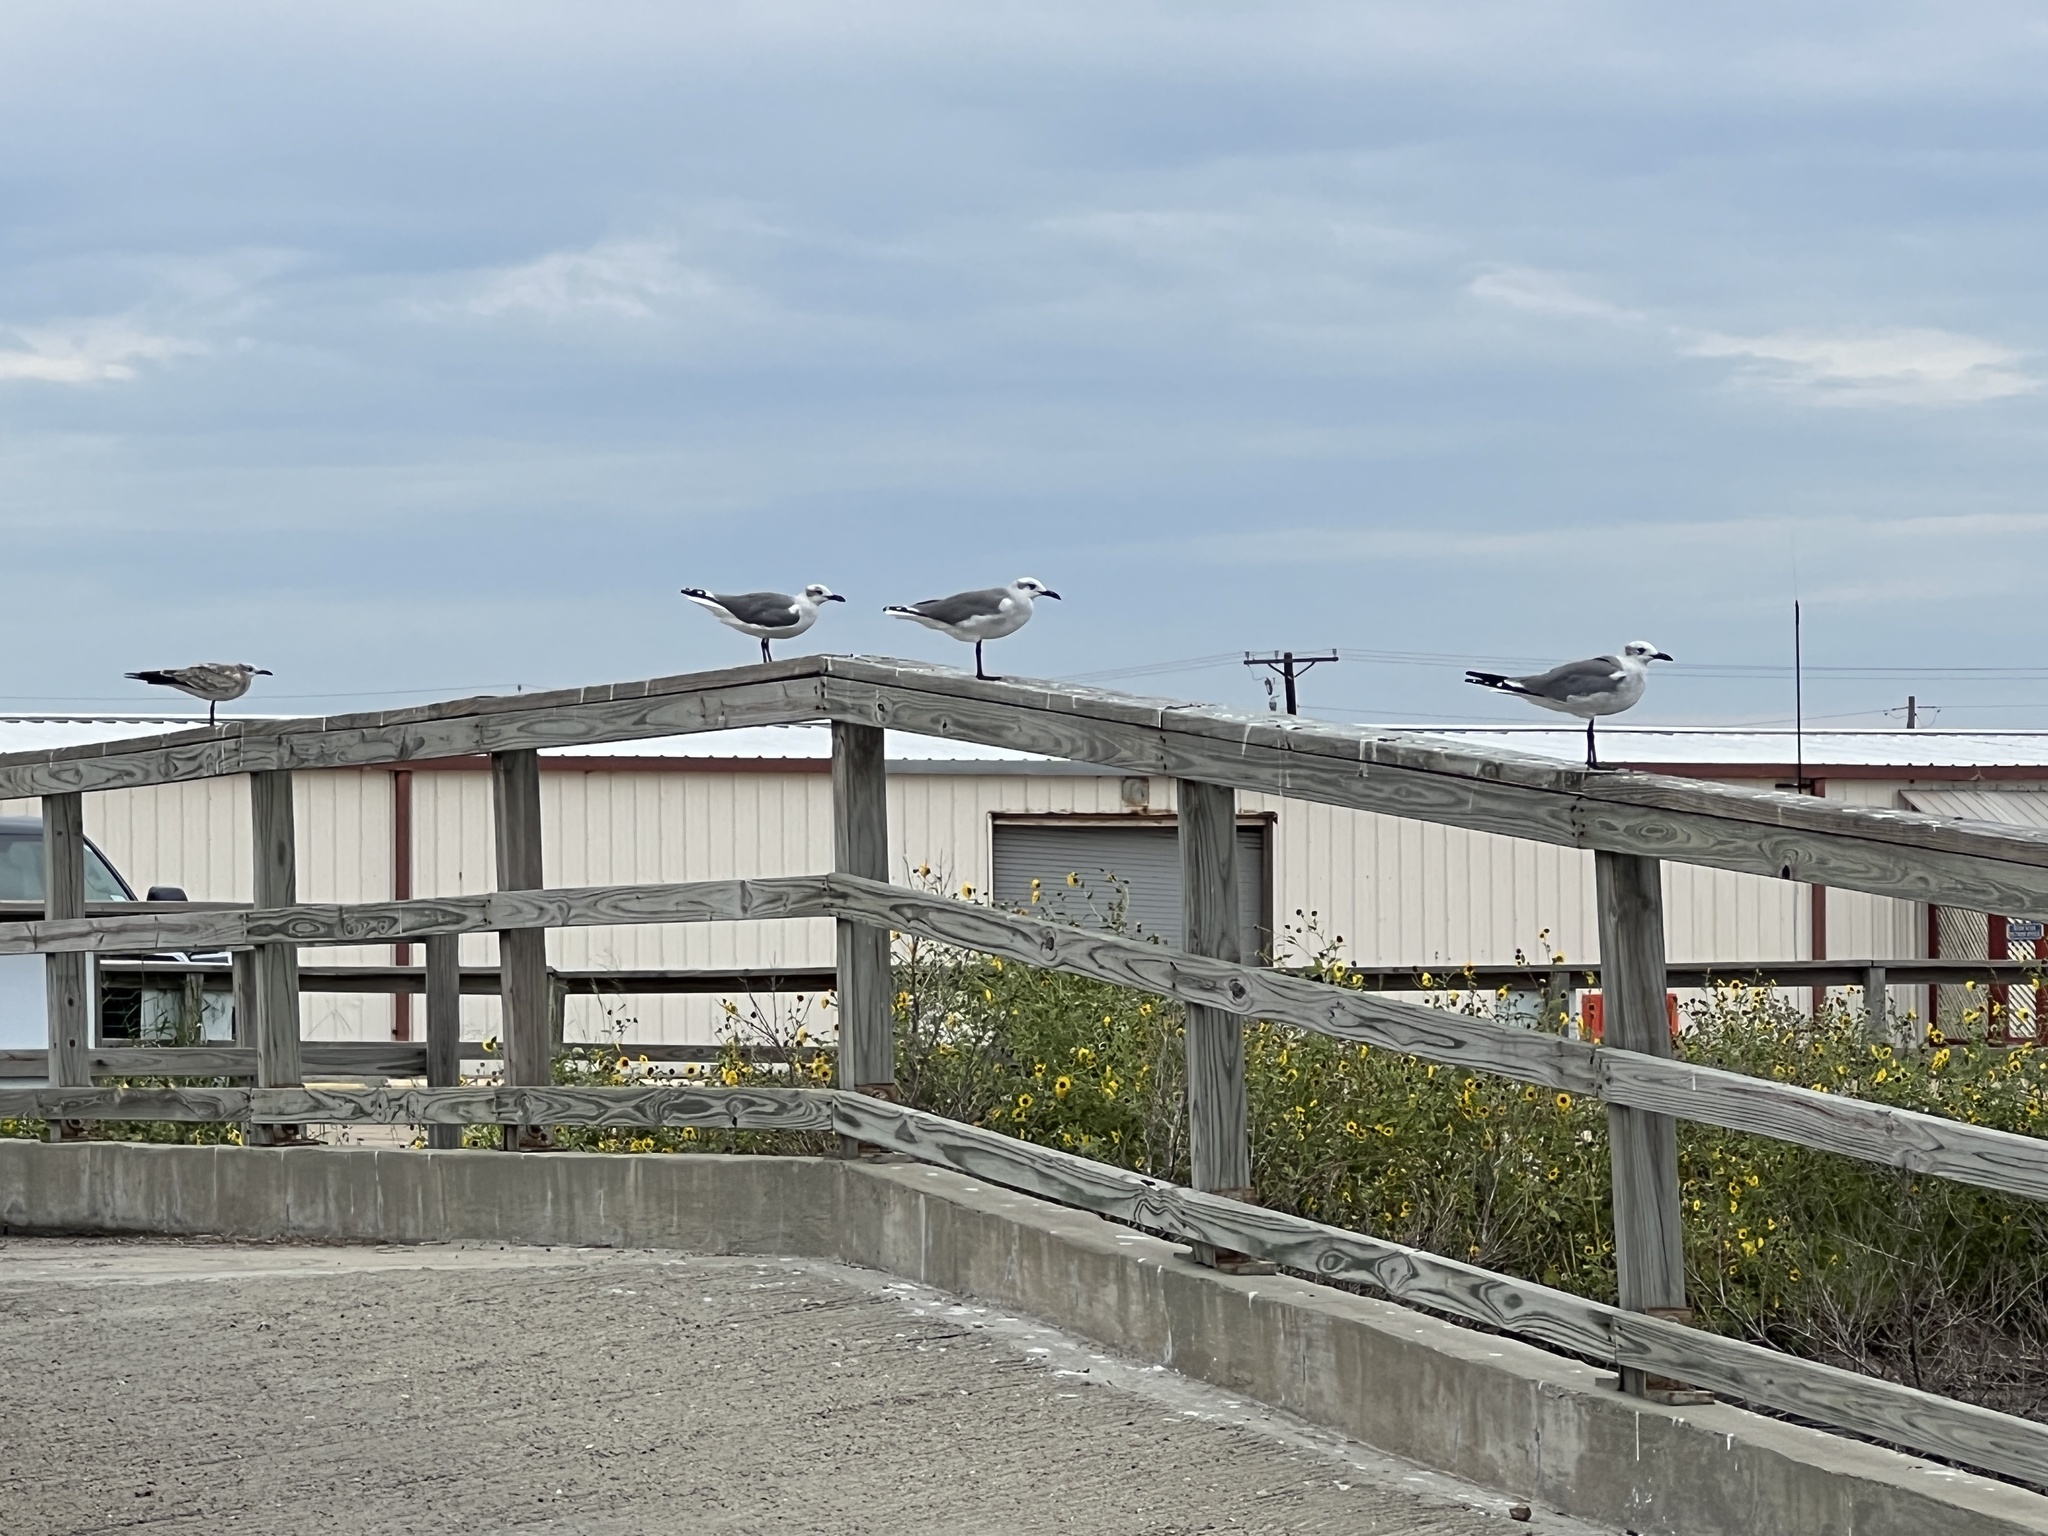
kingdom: Animalia
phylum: Chordata
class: Aves
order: Charadriiformes
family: Laridae
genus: Leucophaeus
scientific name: Leucophaeus atricilla
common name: Laughing gull
